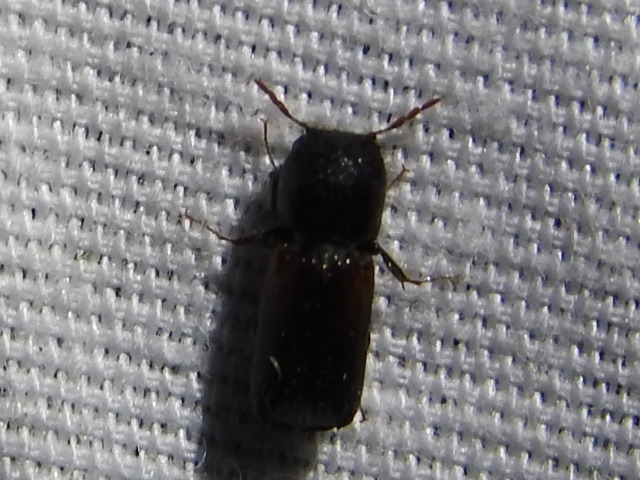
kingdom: Animalia
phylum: Arthropoda
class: Insecta
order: Coleoptera
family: Bostrichidae
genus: Xylobiops
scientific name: Xylobiops basilaris
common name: Red-shouldered bostrichid
